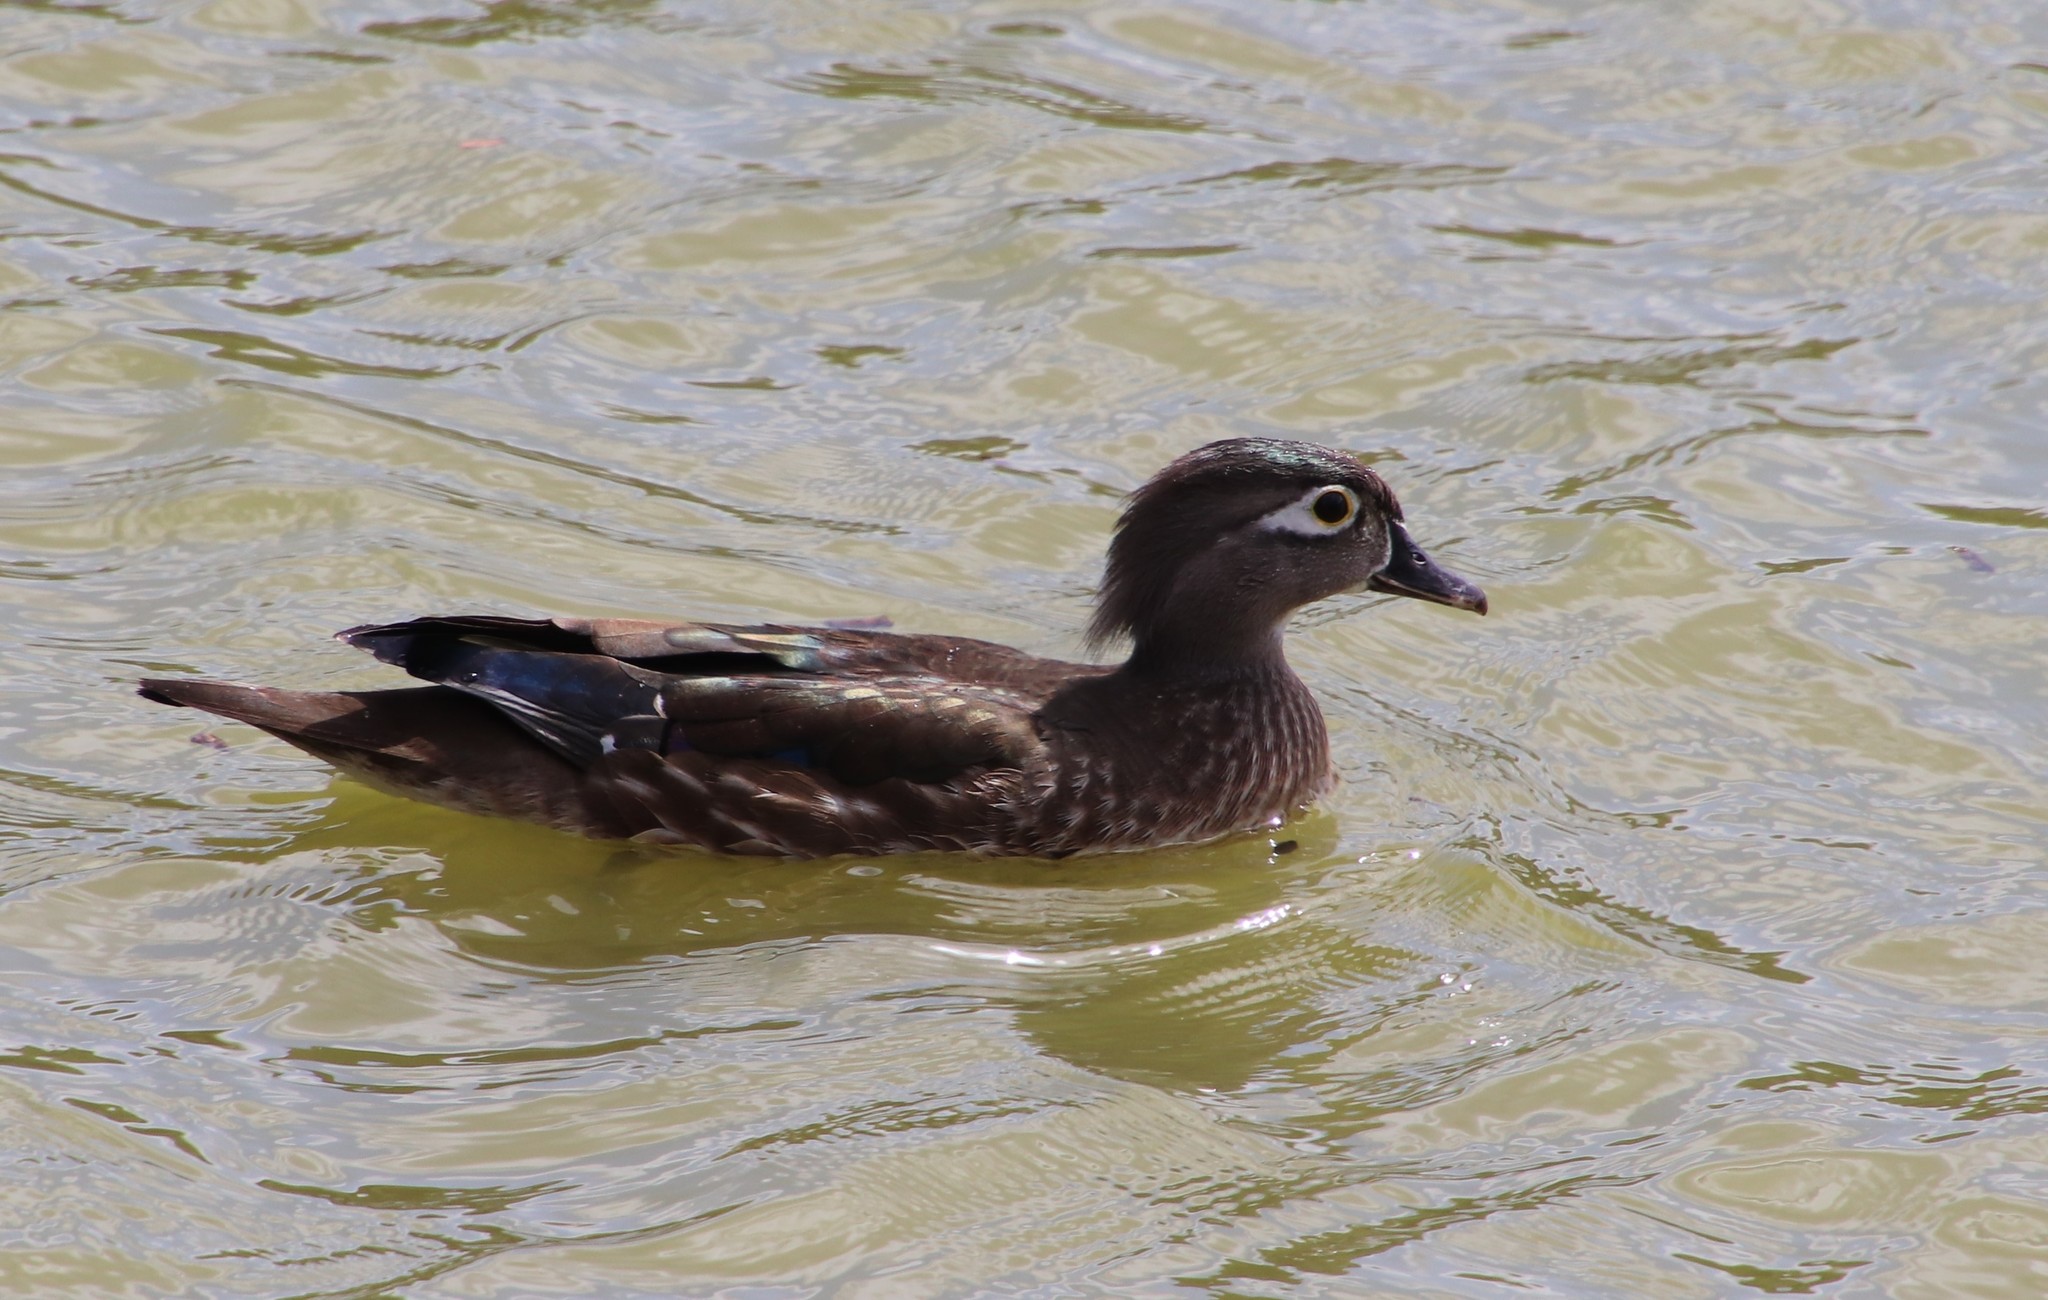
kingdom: Animalia
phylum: Chordata
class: Aves
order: Anseriformes
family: Anatidae
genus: Aix
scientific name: Aix sponsa
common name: Wood duck
